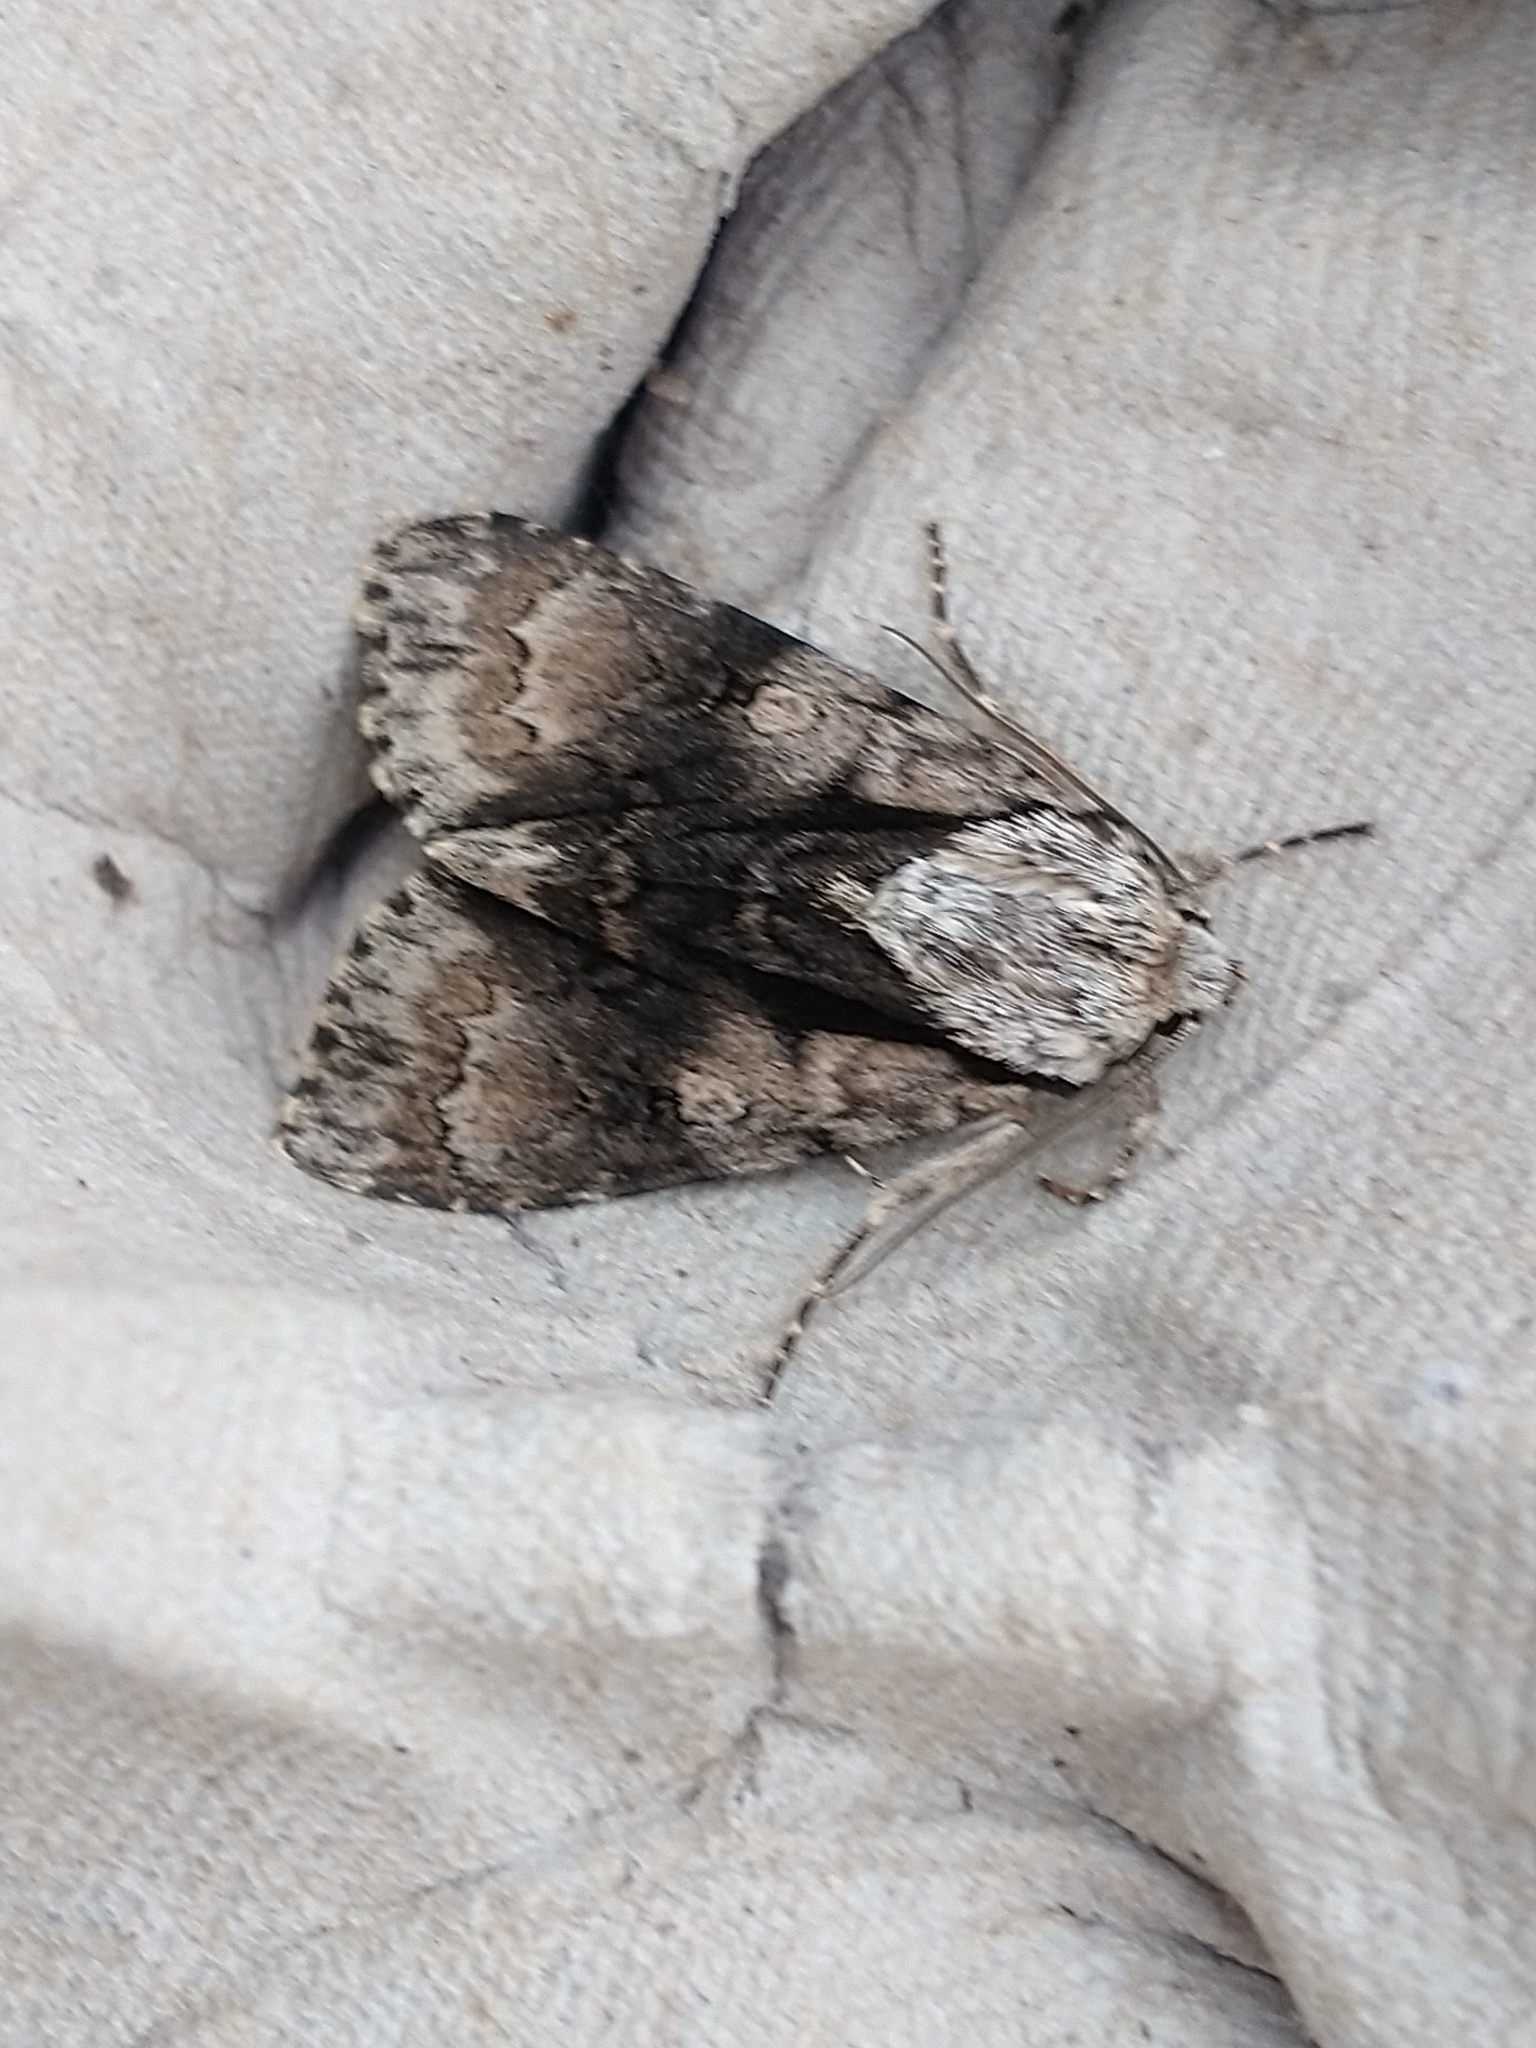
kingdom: Animalia
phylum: Arthropoda
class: Insecta
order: Lepidoptera
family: Noctuidae
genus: Acronicta
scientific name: Acronicta alni
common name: Alder moth
